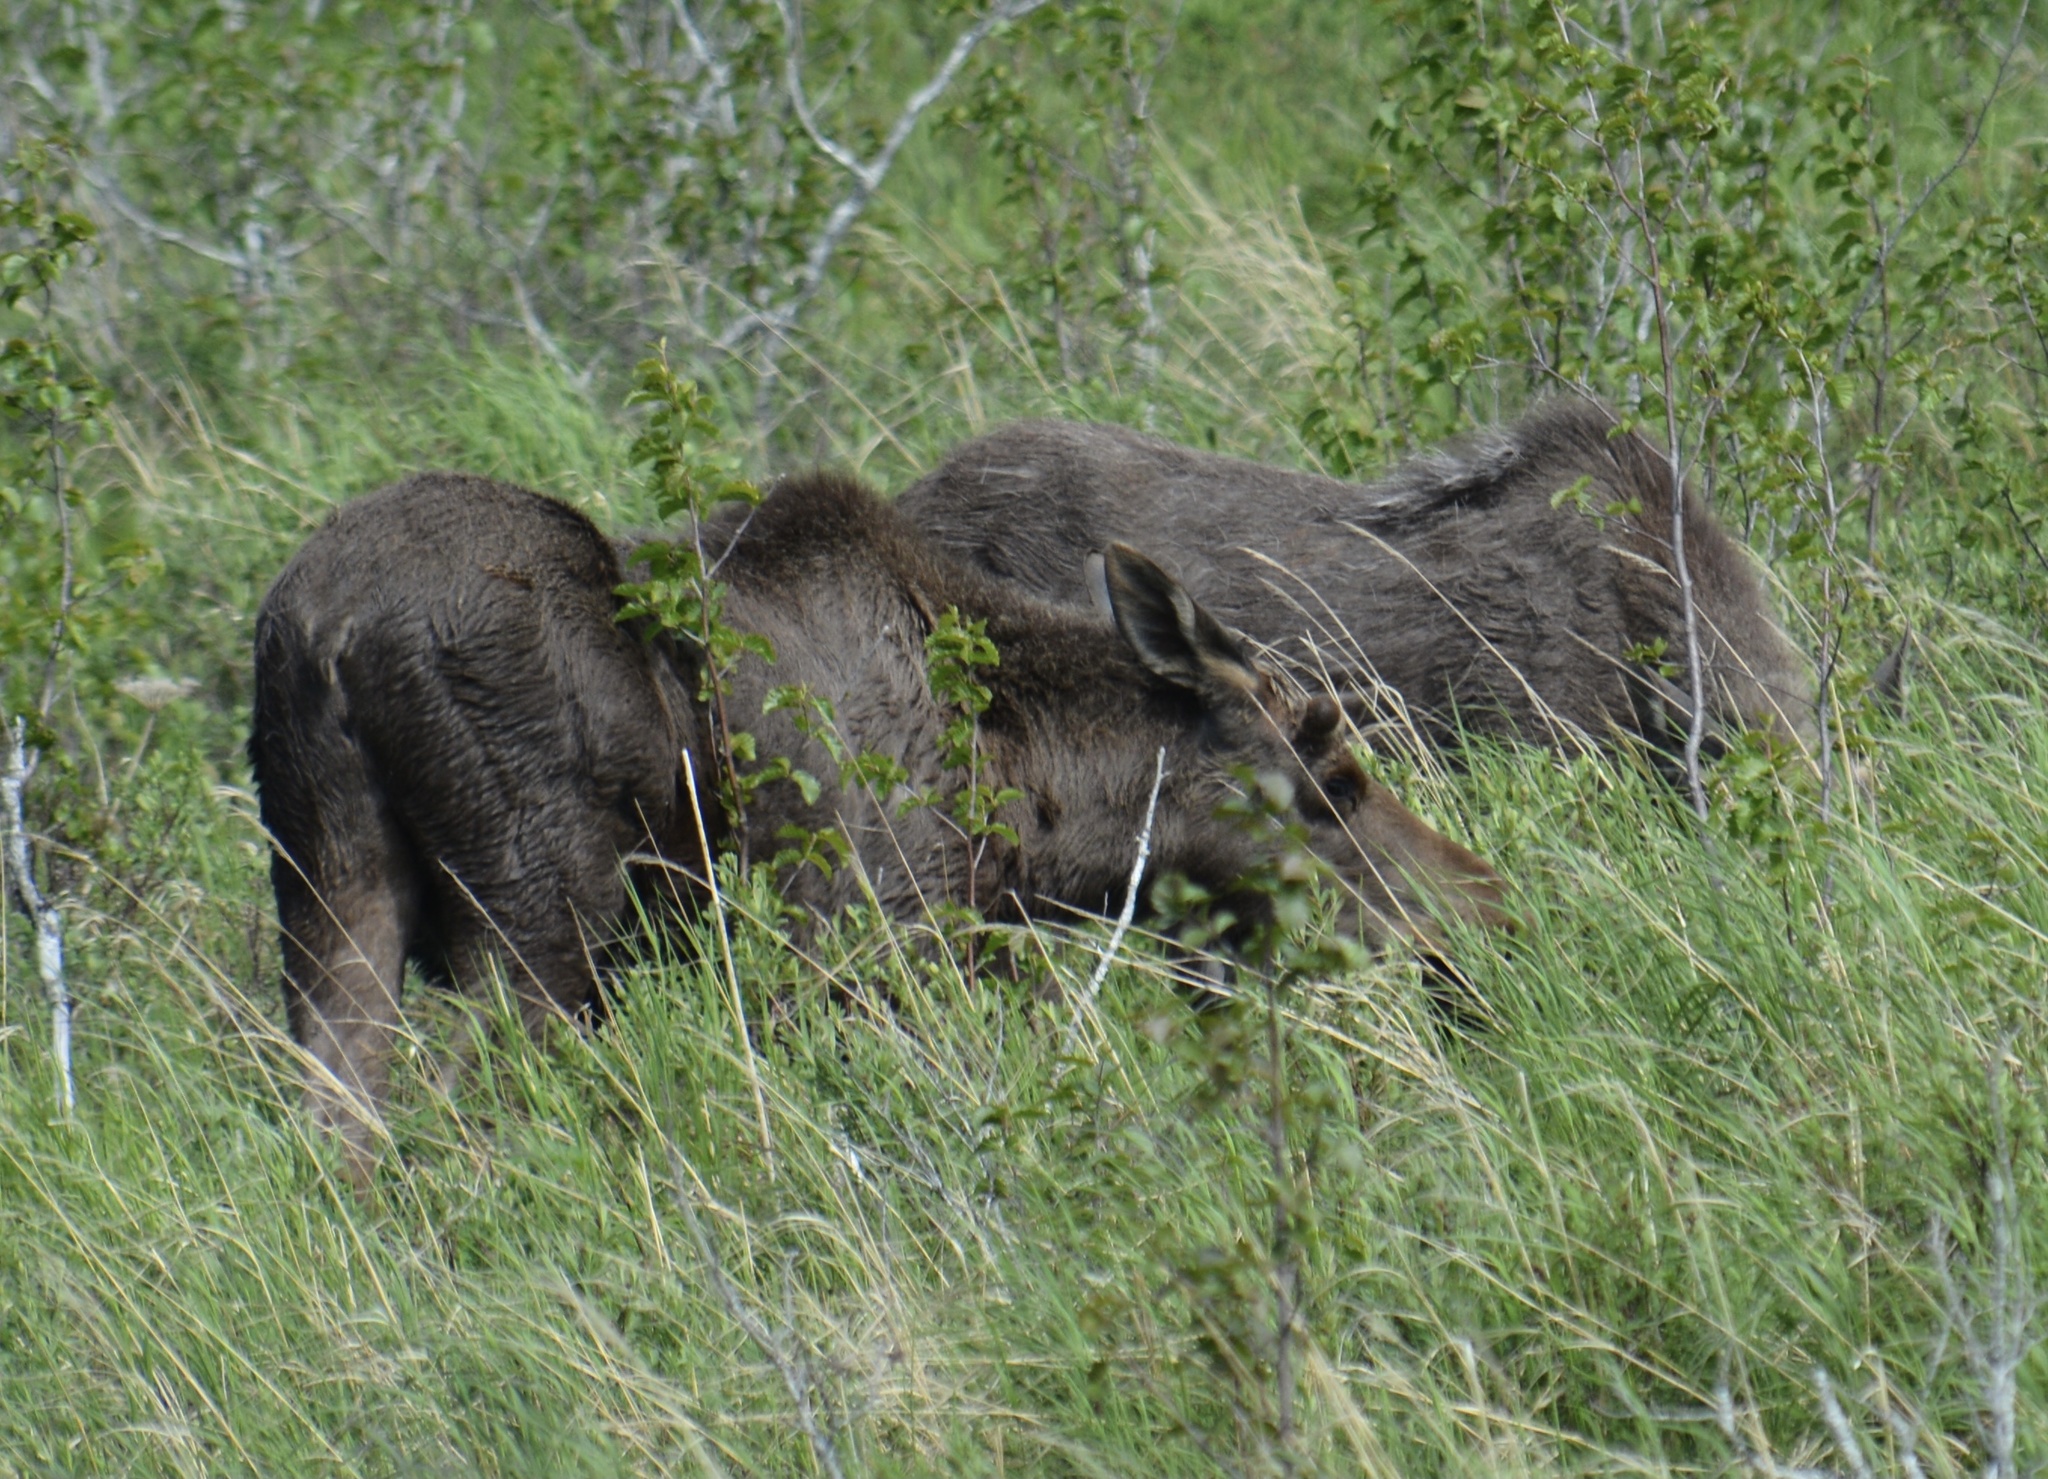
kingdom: Animalia
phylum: Chordata
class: Mammalia
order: Artiodactyla
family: Cervidae
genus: Alces
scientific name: Alces alces
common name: Moose
